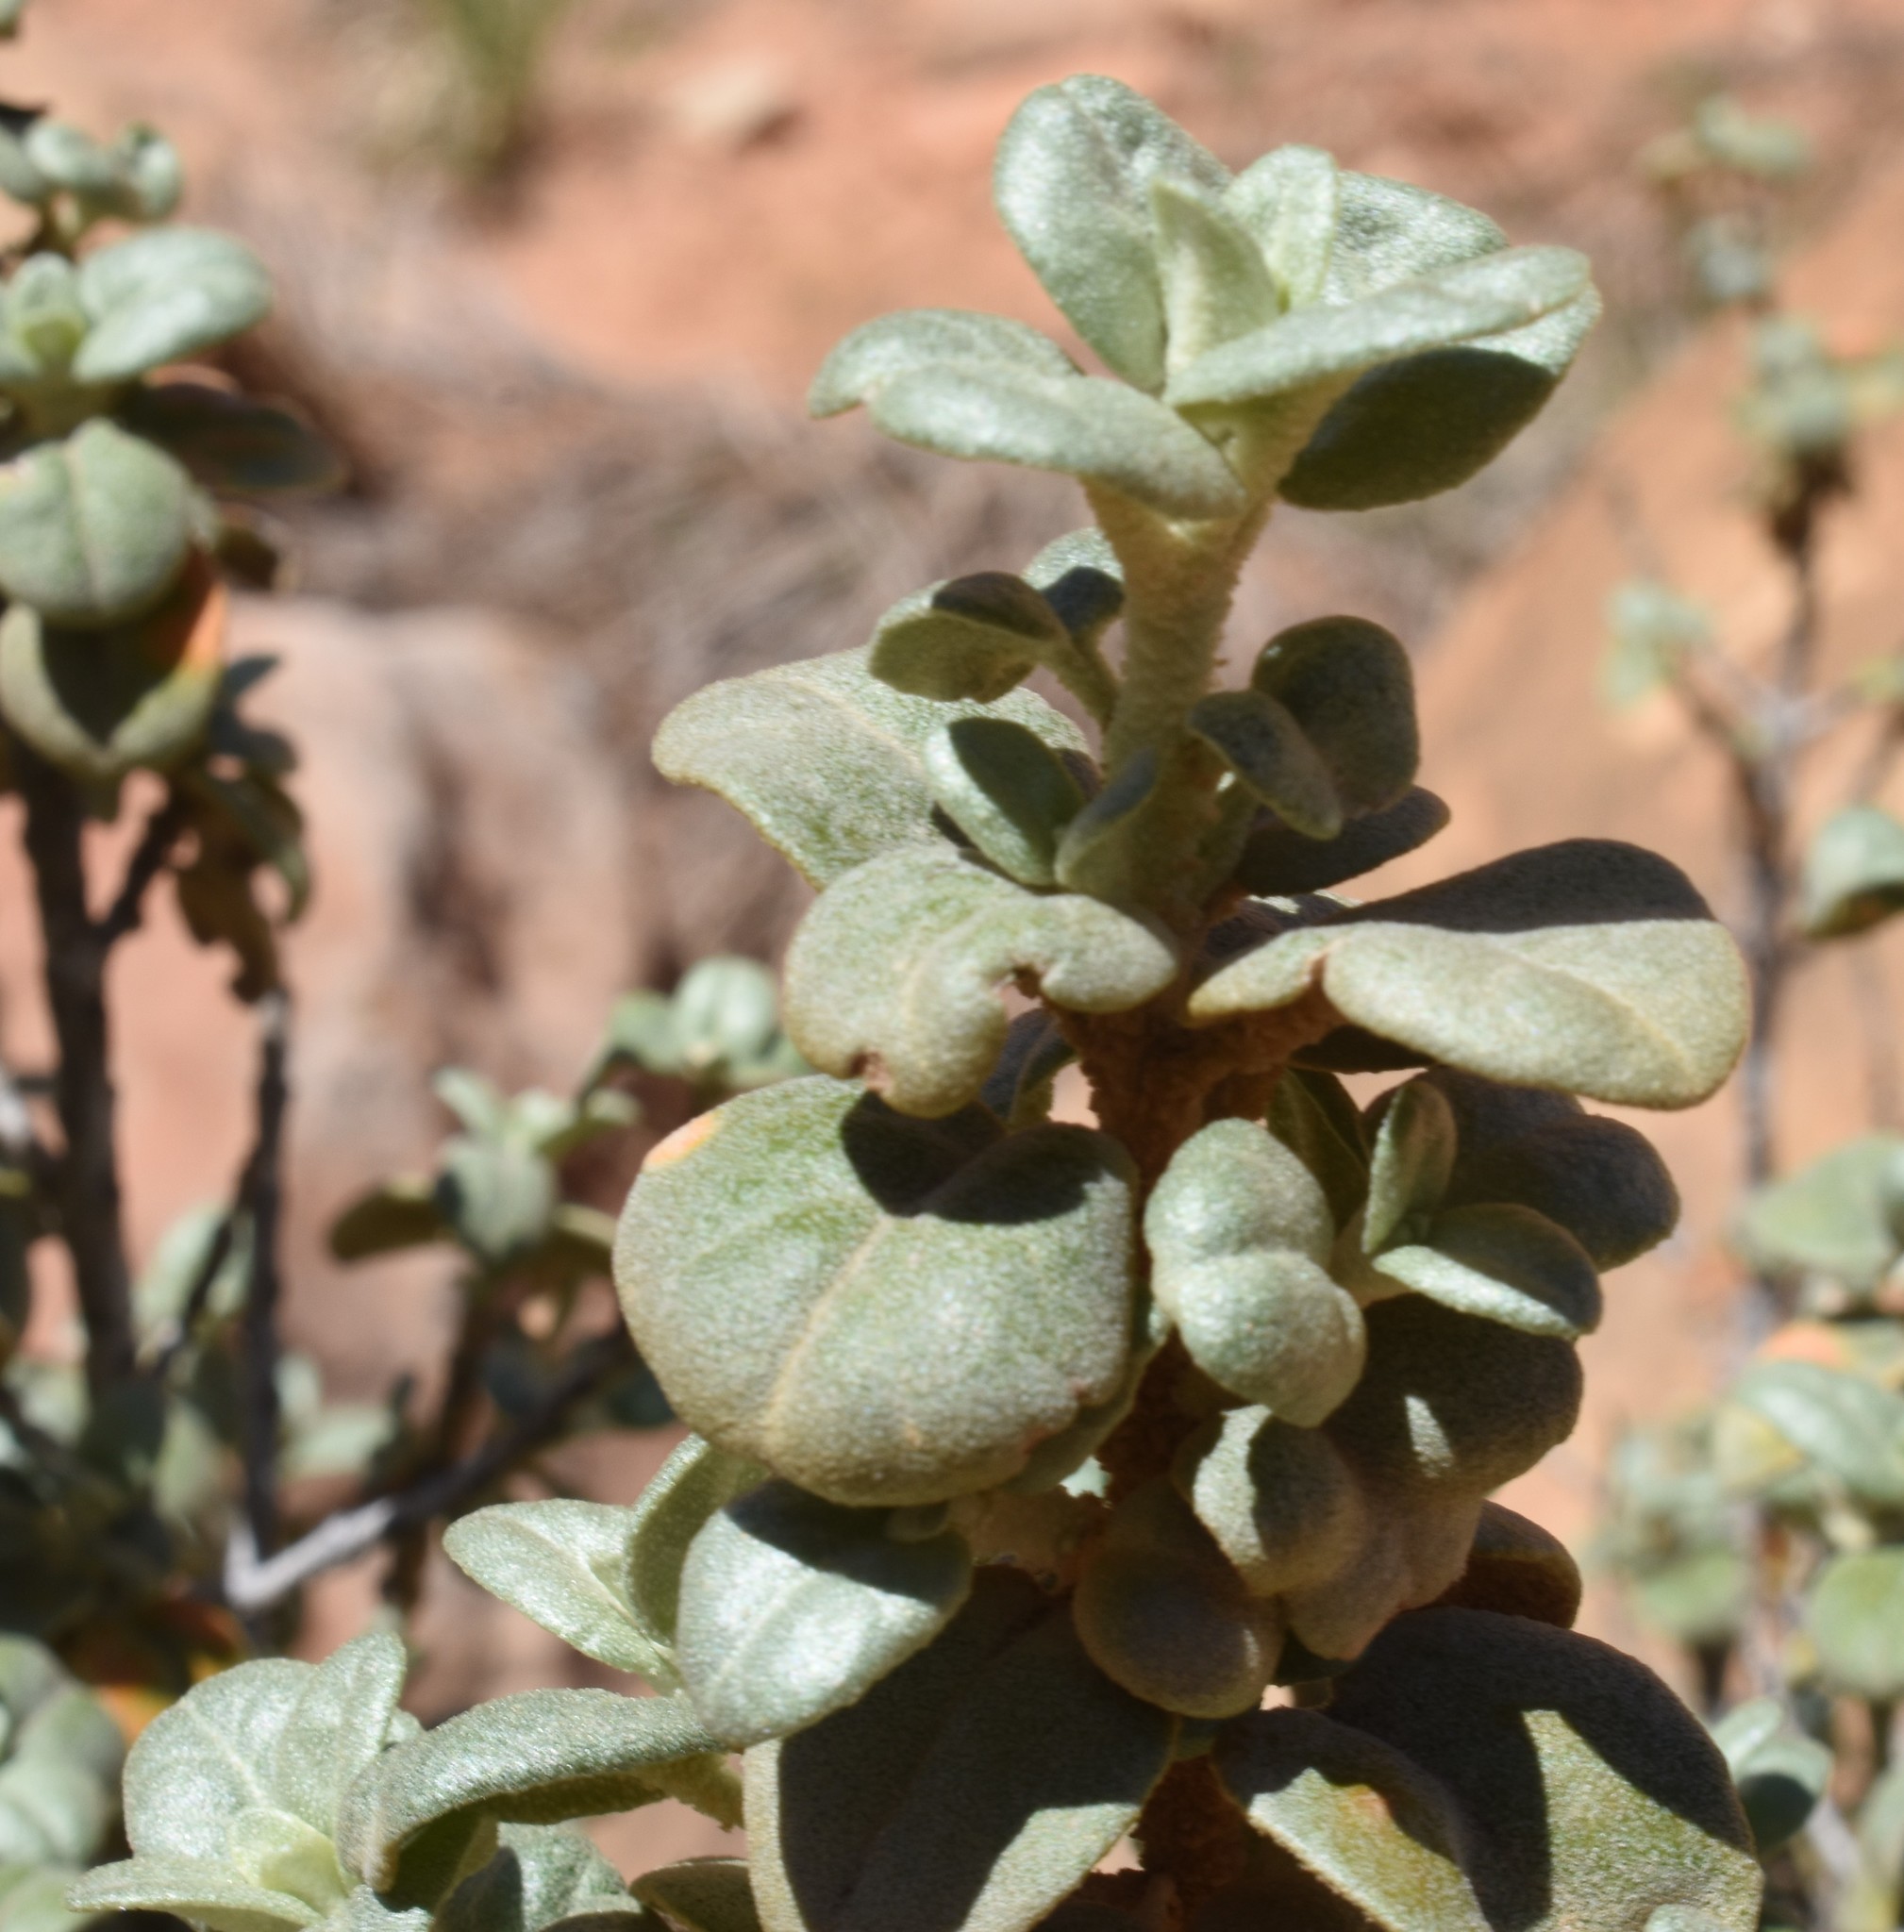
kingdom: Plantae
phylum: Tracheophyta
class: Magnoliopsida
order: Rosales
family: Elaeagnaceae
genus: Shepherdia
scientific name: Shepherdia rotundifolia
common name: Silverscale
